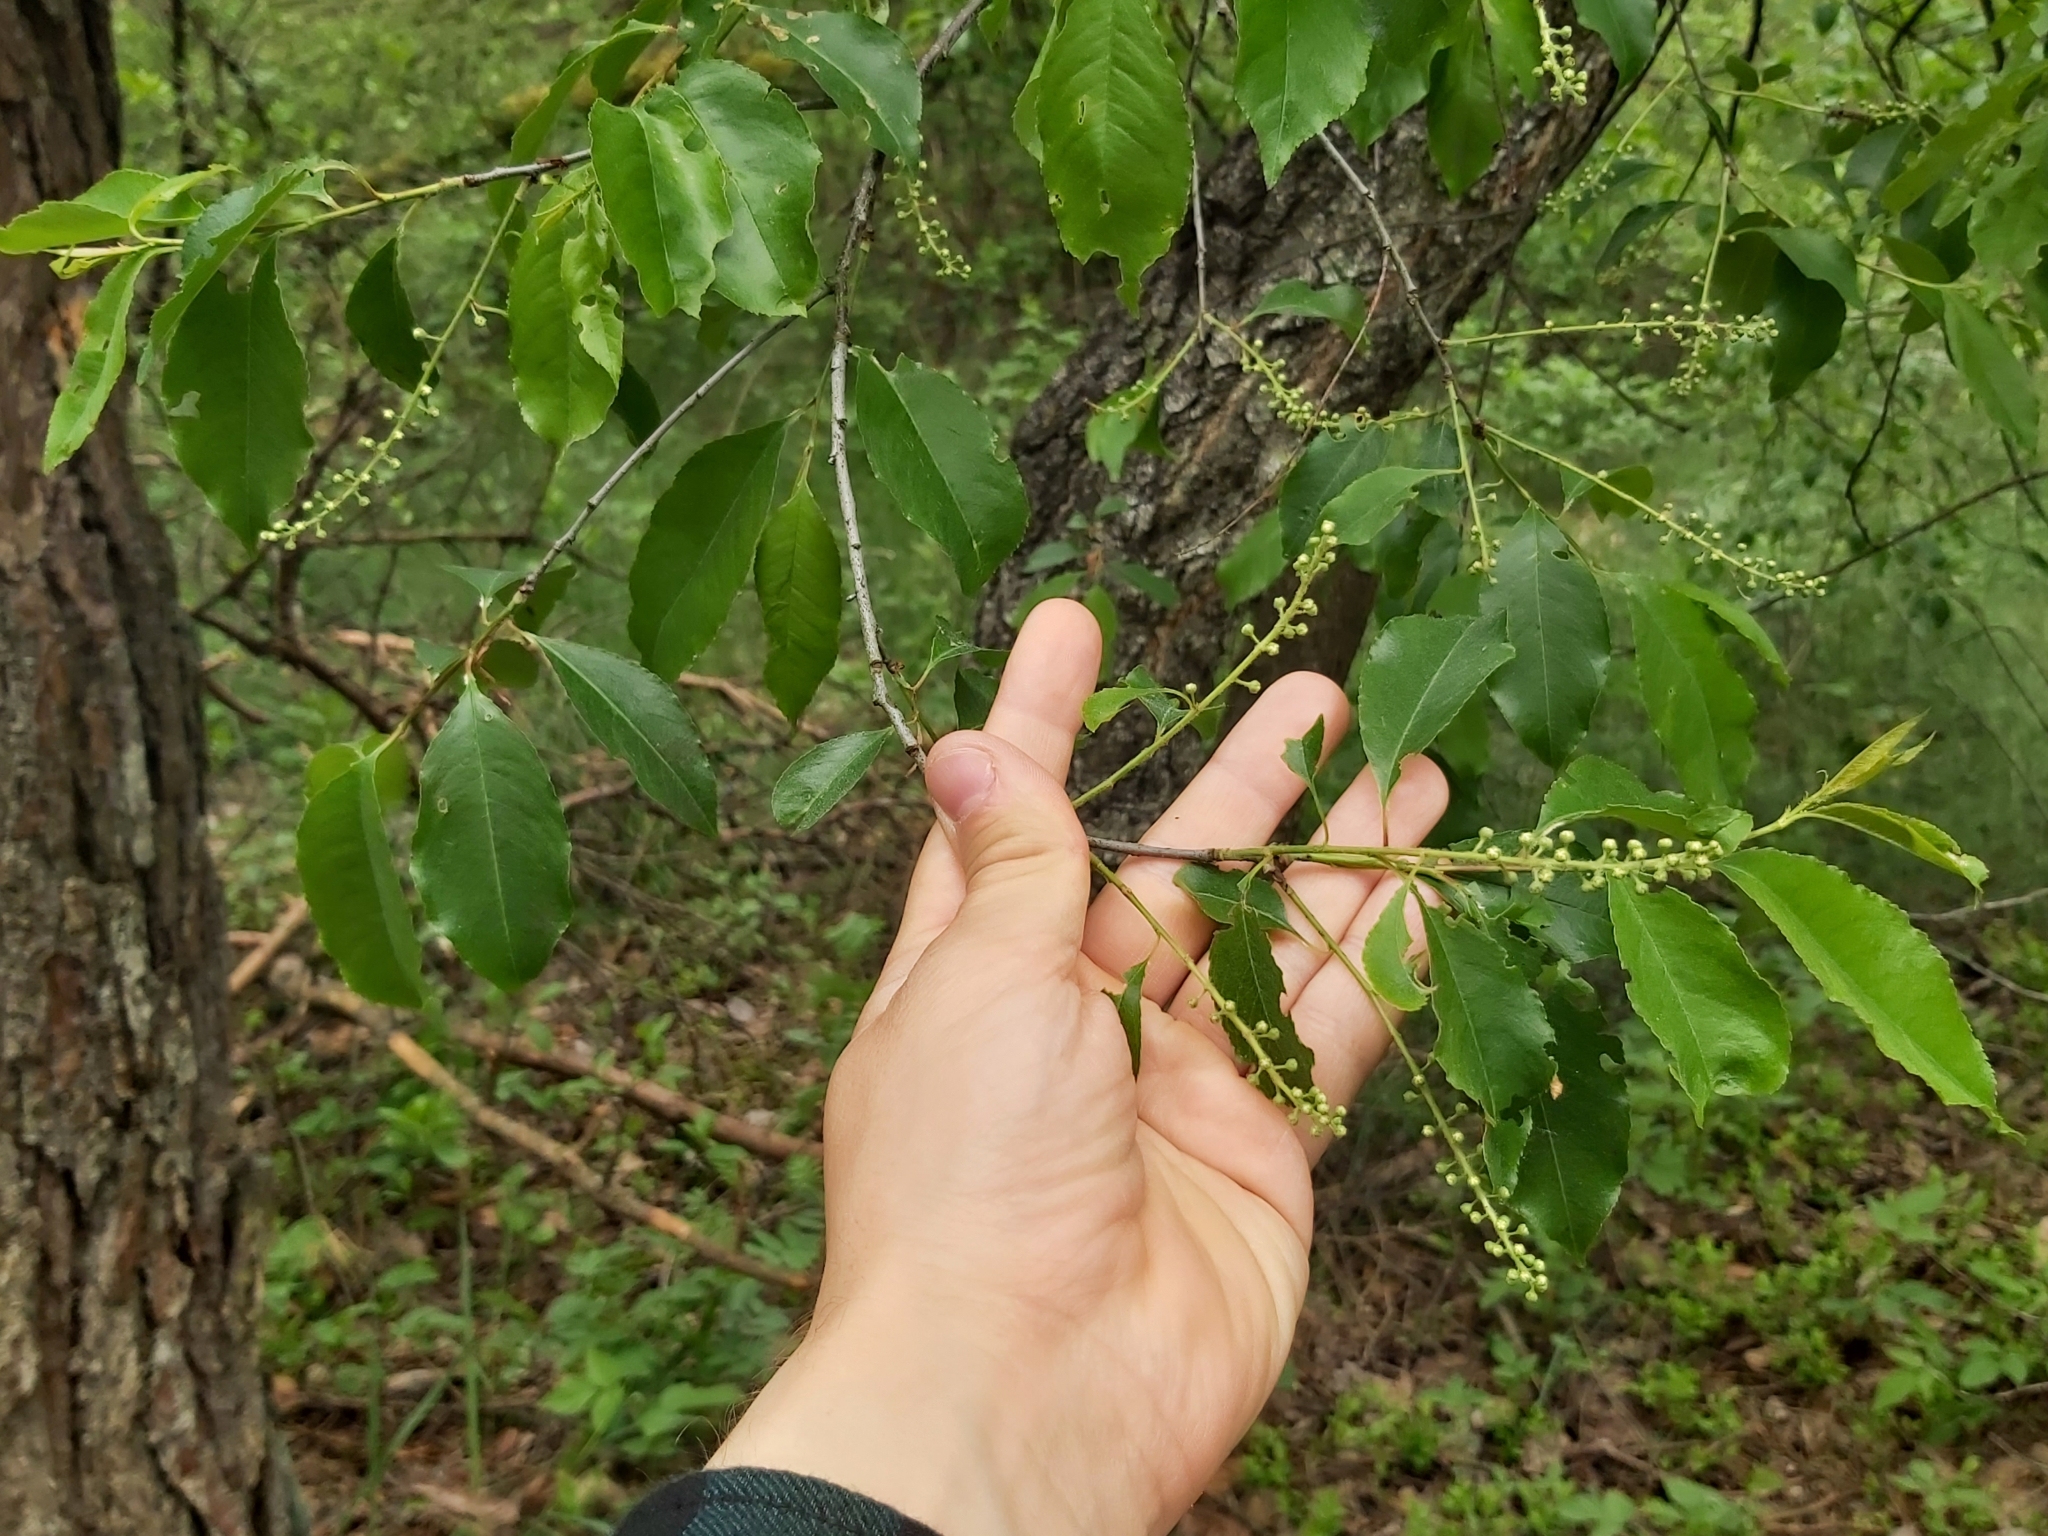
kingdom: Plantae
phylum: Tracheophyta
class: Magnoliopsida
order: Rosales
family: Rosaceae
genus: Prunus
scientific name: Prunus serotina
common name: Black cherry
